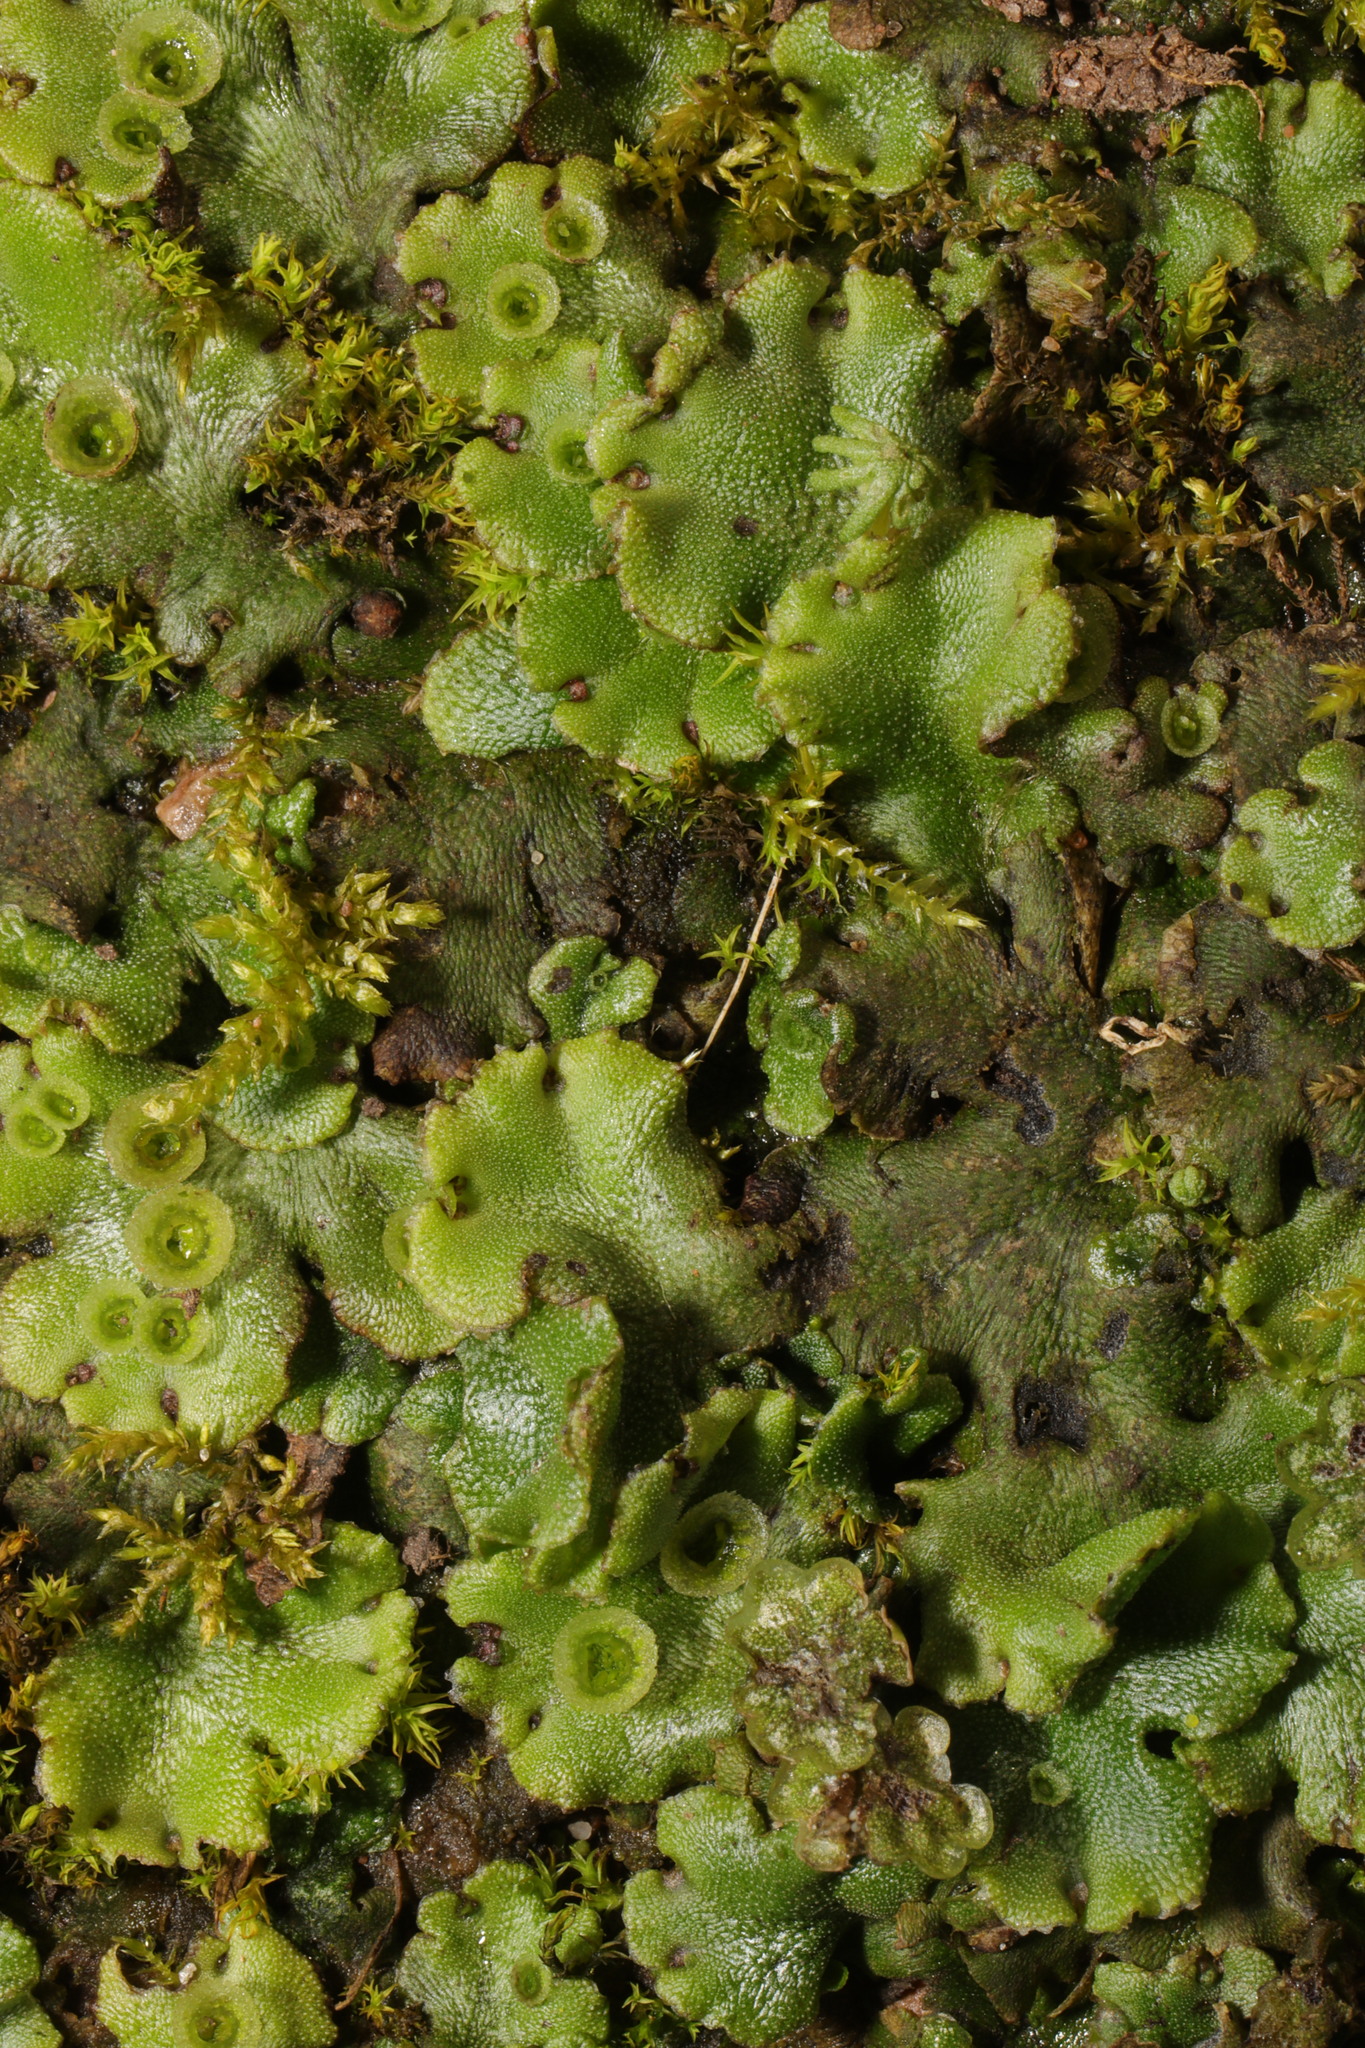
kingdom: Plantae
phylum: Marchantiophyta
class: Marchantiopsida
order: Marchantiales
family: Marchantiaceae
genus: Marchantia
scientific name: Marchantia polymorpha
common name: Common liverwort
